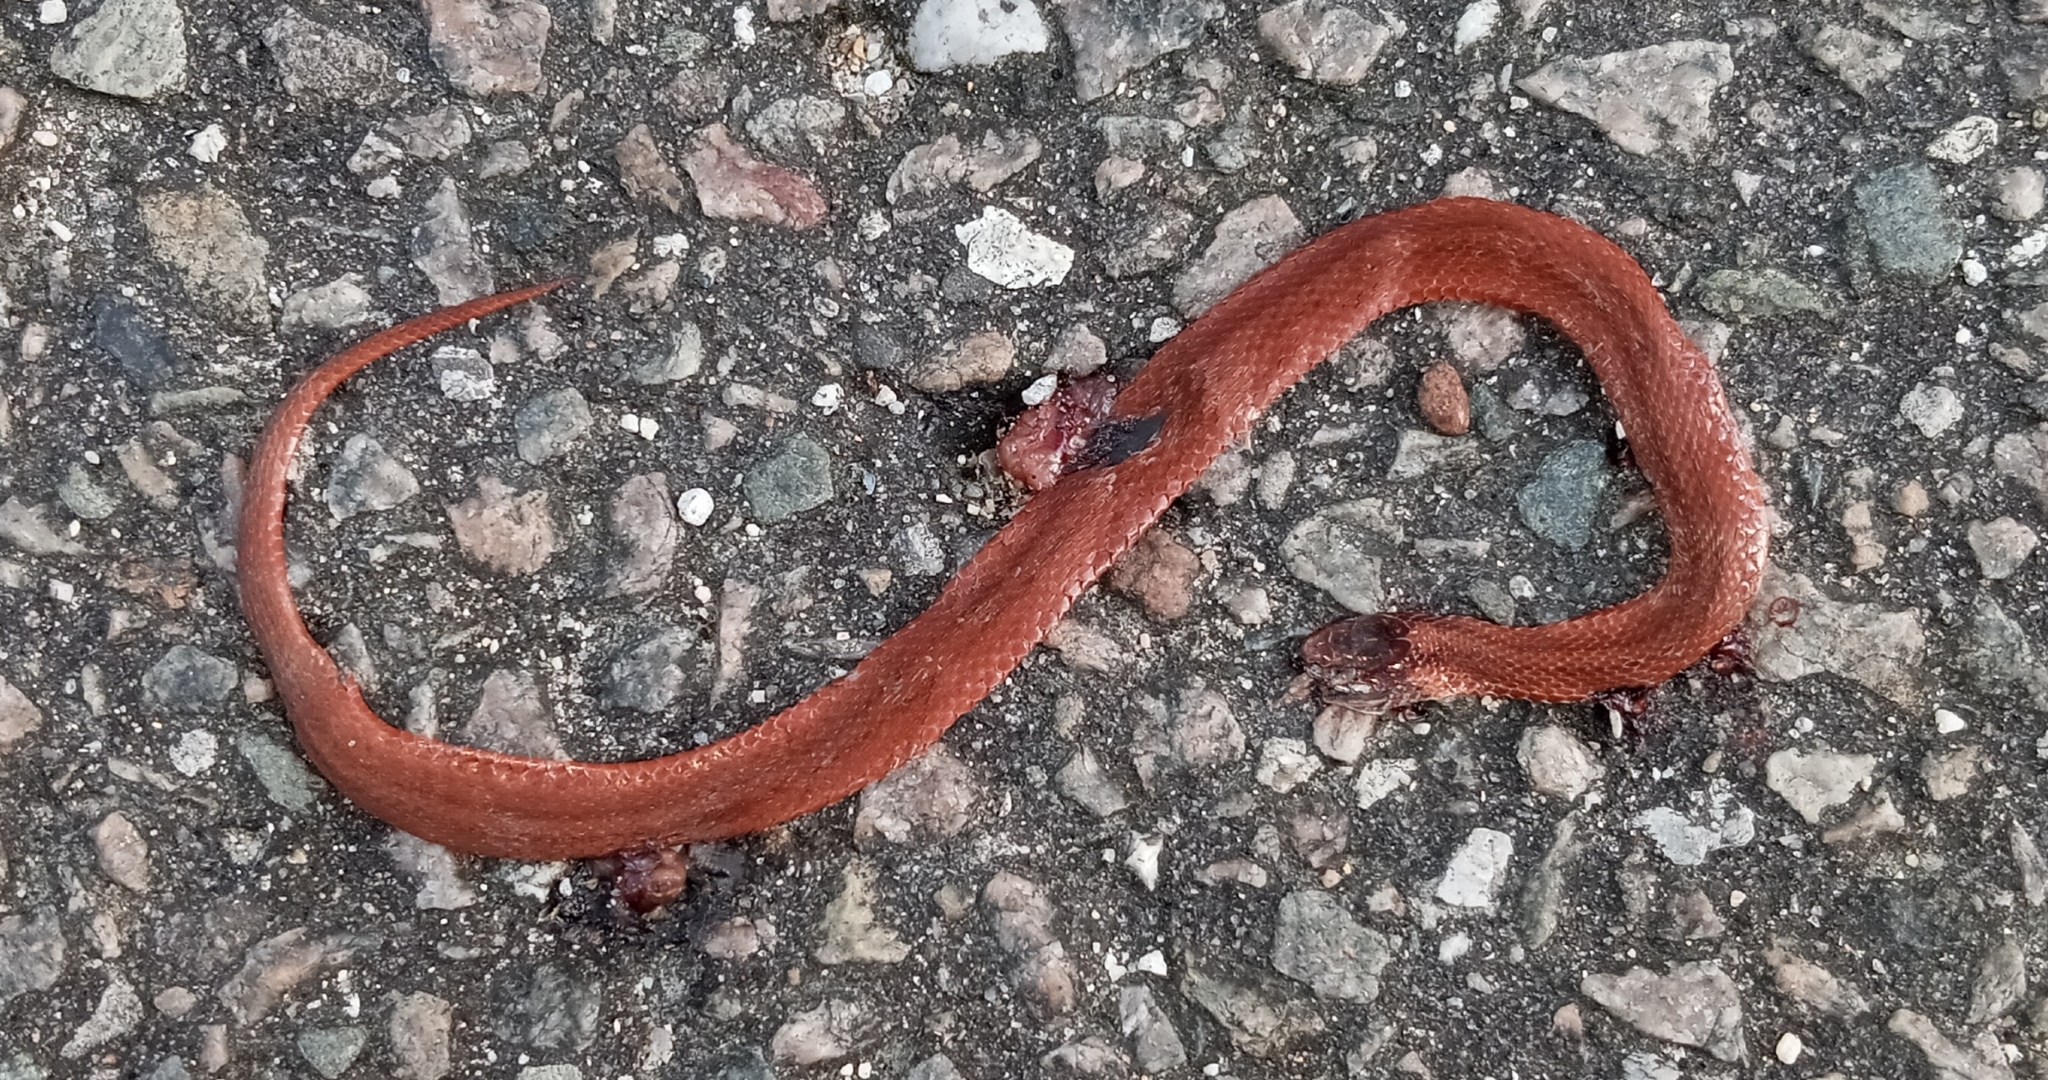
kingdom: Animalia
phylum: Chordata
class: Squamata
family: Colubridae
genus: Storeria
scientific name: Storeria occipitomaculata
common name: Redbelly snake
